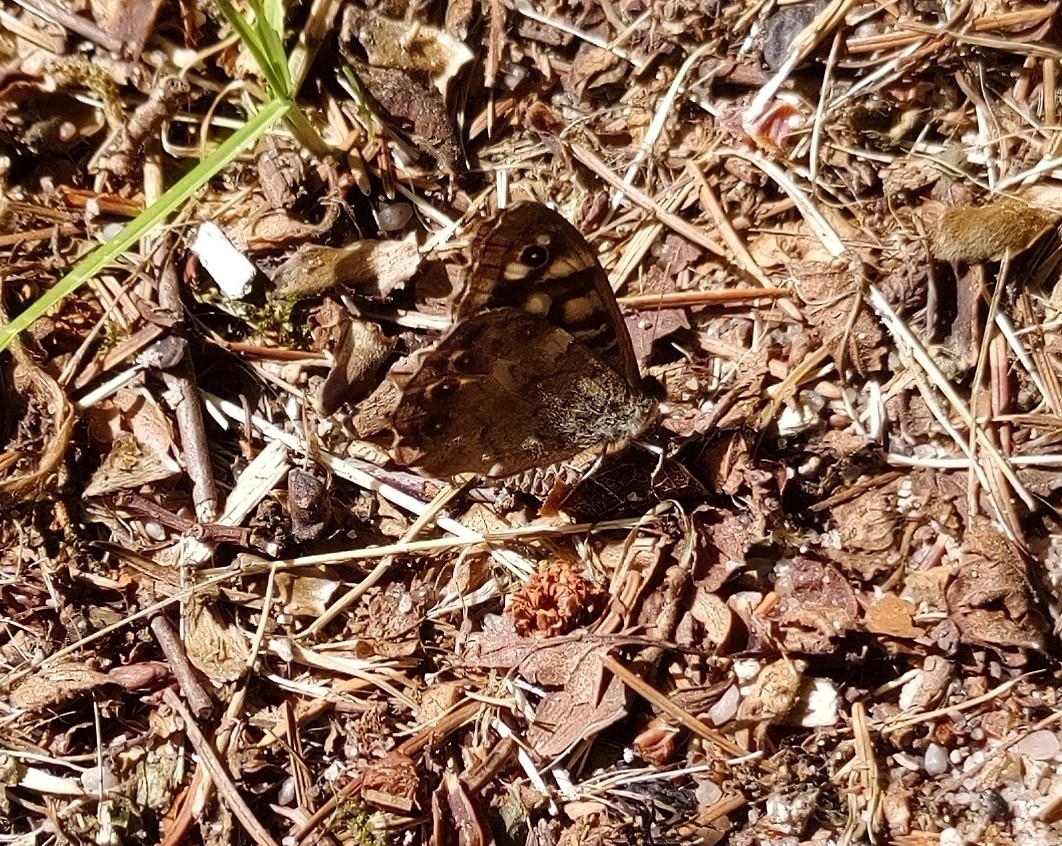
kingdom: Animalia
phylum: Arthropoda
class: Insecta
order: Lepidoptera
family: Nymphalidae
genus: Pararge
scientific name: Pararge aegeria
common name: Speckled wood
